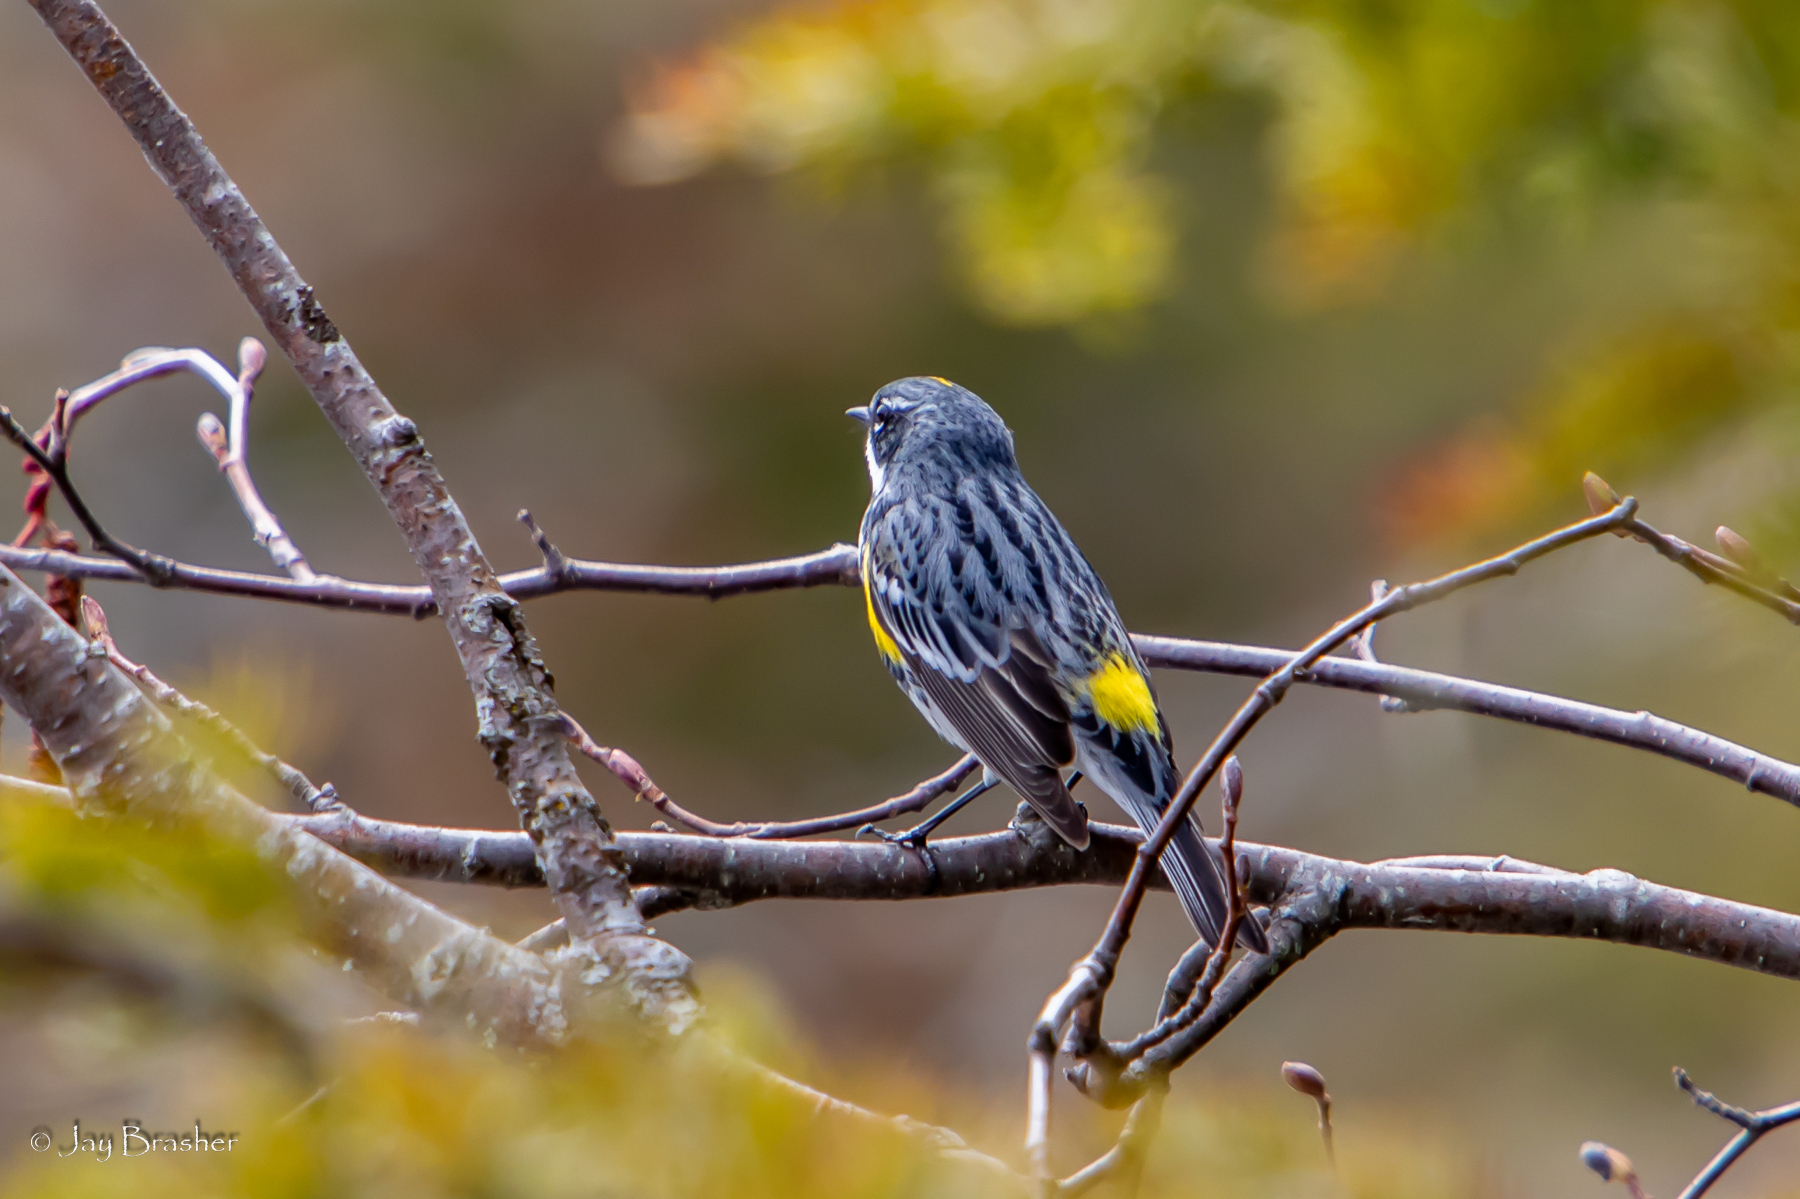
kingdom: Animalia
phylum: Chordata
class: Aves
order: Passeriformes
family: Parulidae
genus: Setophaga
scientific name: Setophaga coronata
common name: Myrtle warbler
